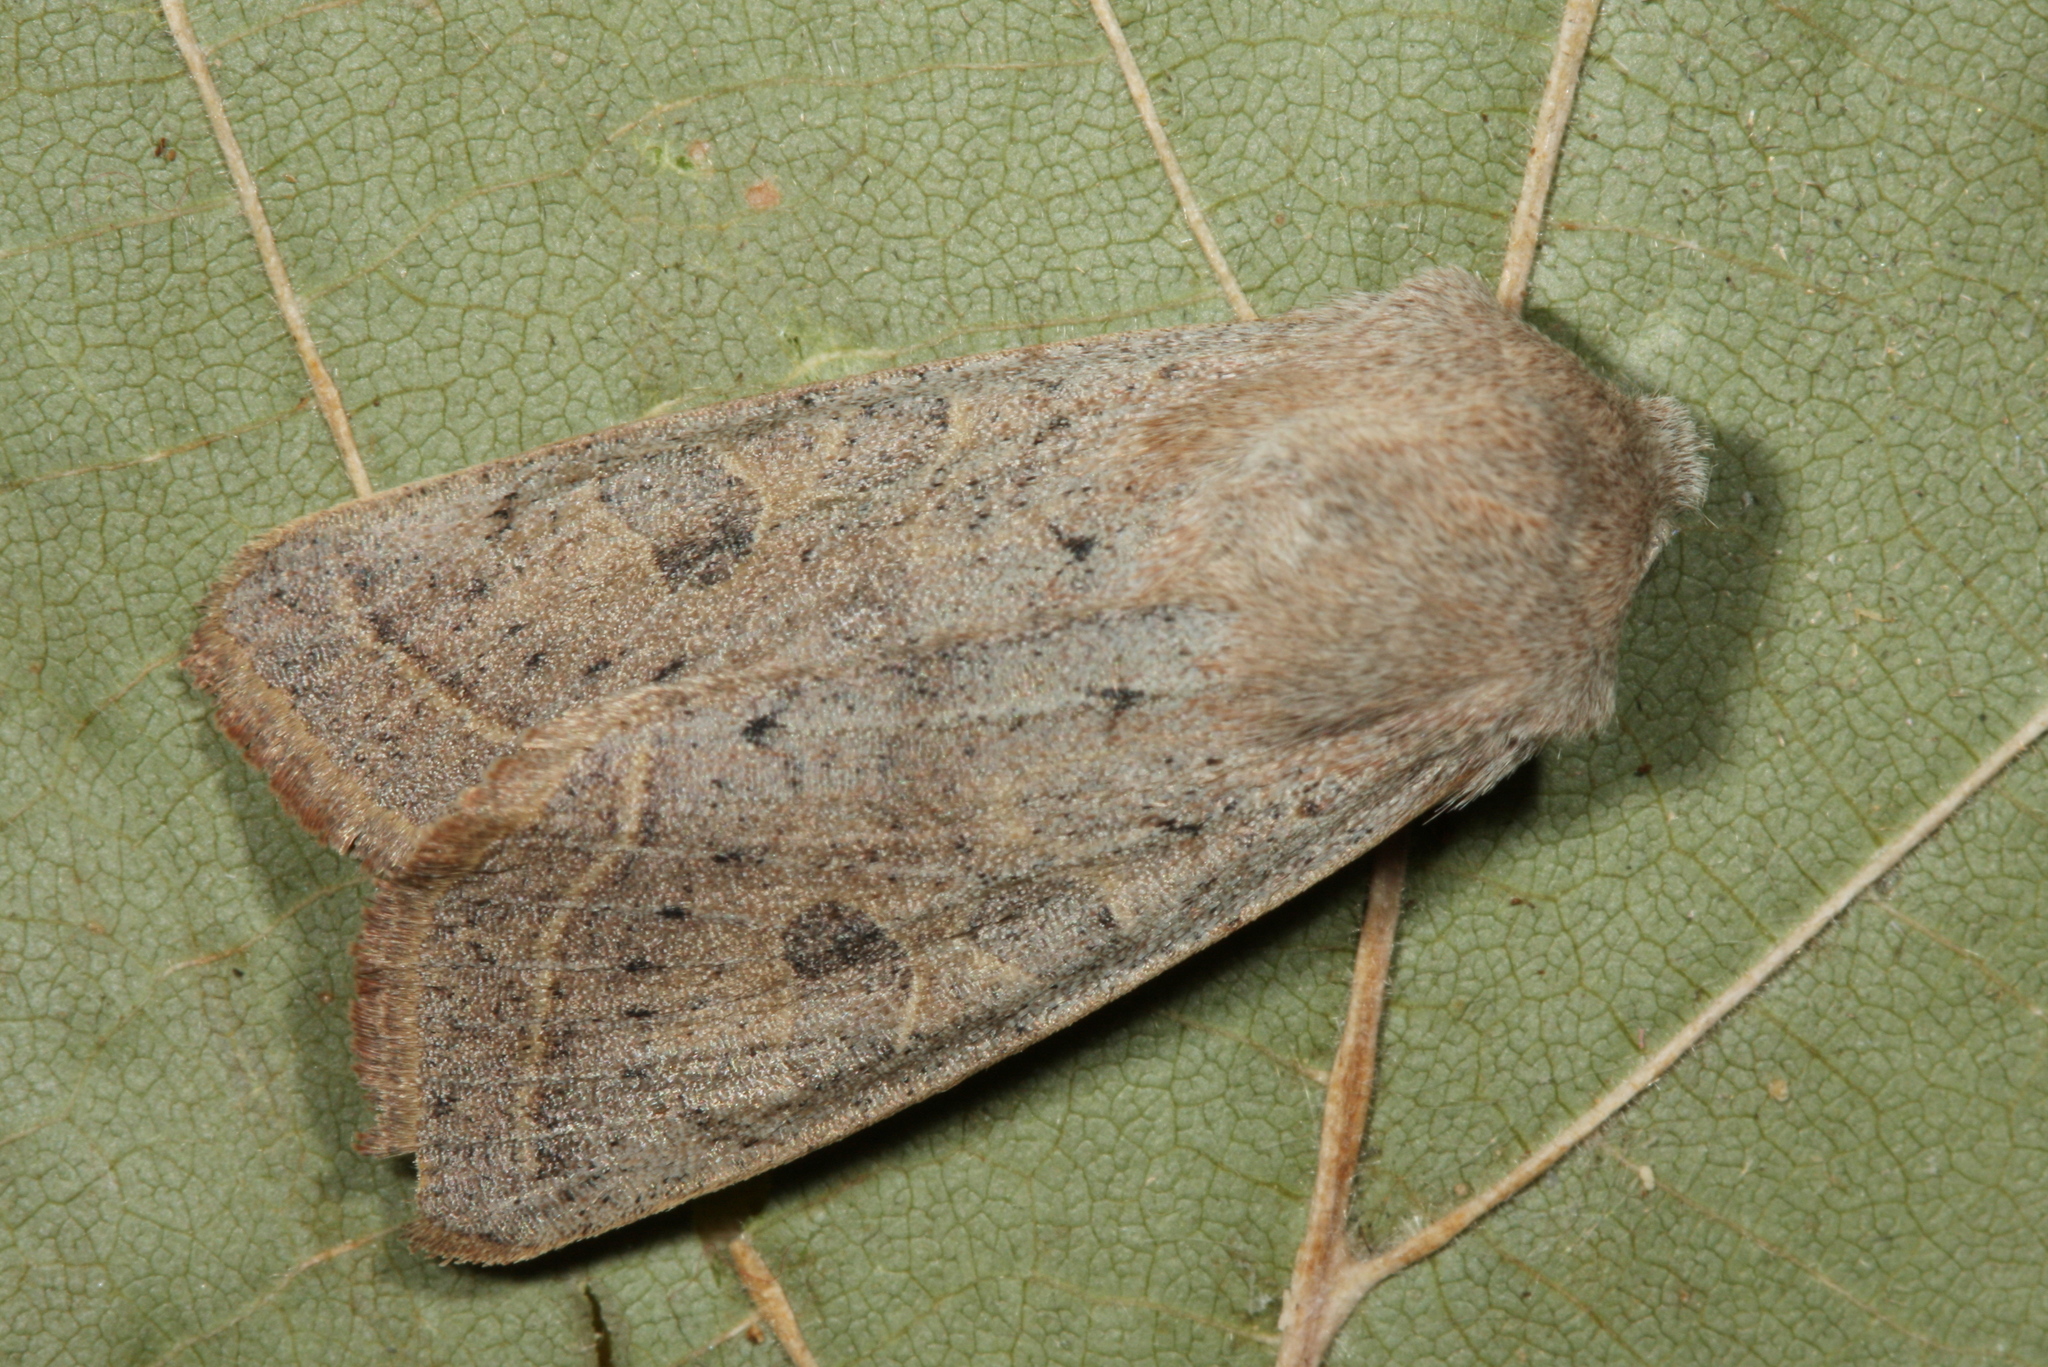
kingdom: Animalia
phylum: Arthropoda
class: Insecta
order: Lepidoptera
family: Noctuidae
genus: Orthosia
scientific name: Orthosia gracilis
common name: Powdered quaker
